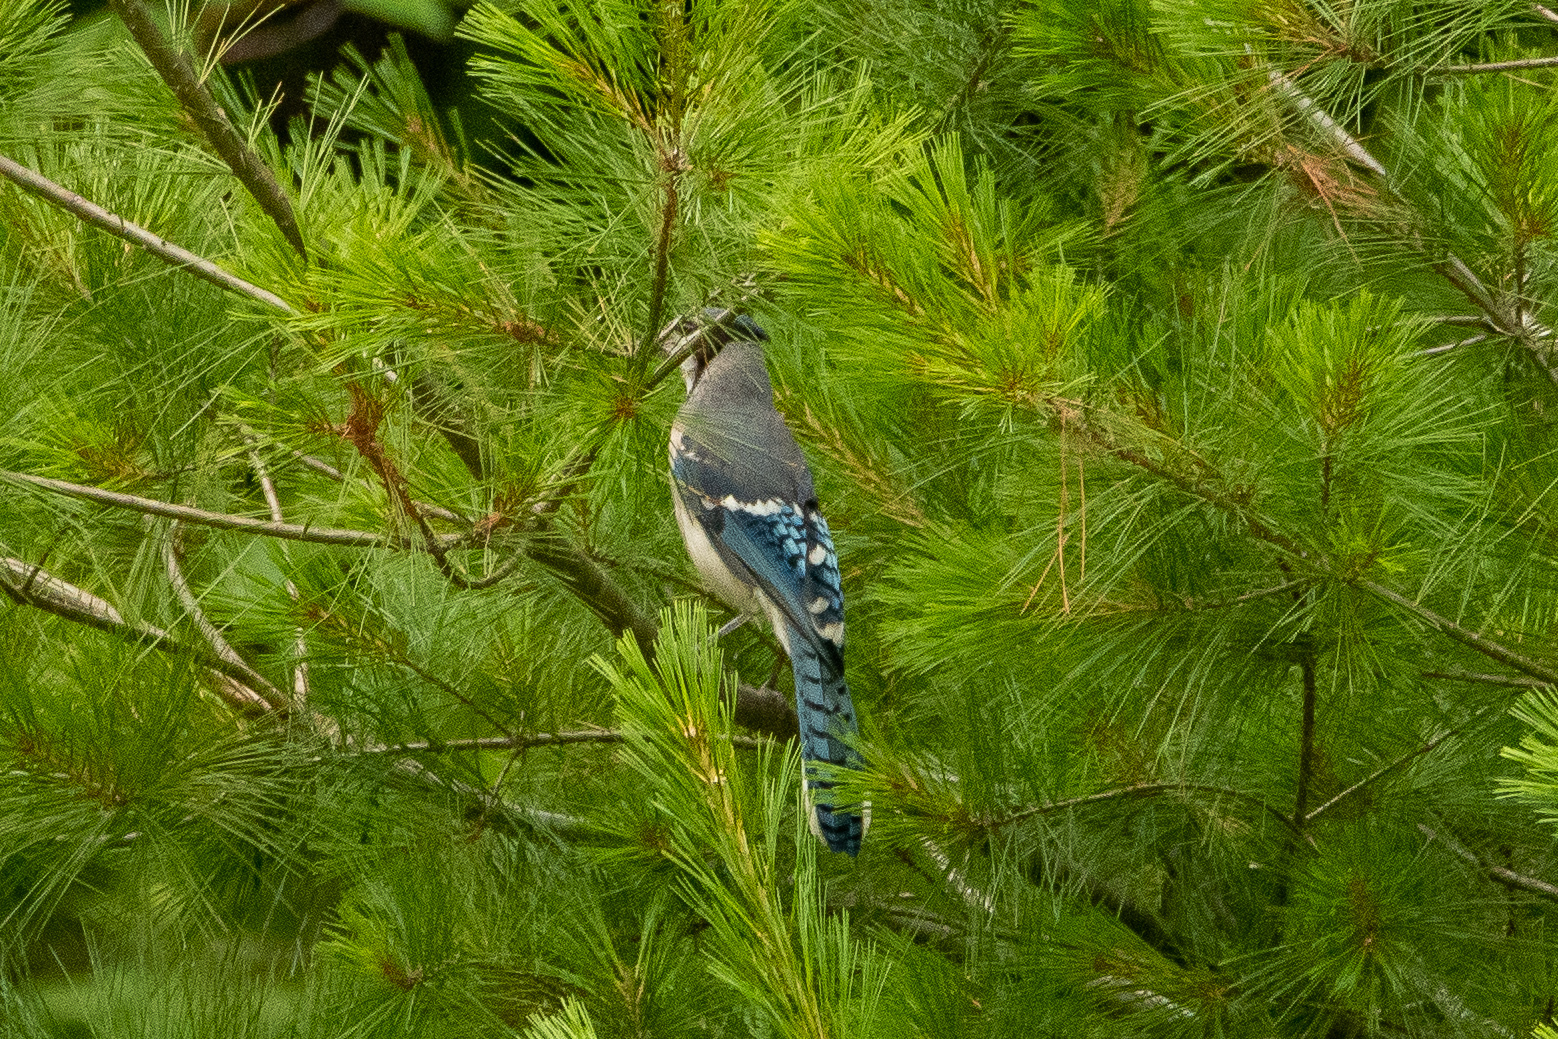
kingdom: Animalia
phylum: Chordata
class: Aves
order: Passeriformes
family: Corvidae
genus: Cyanocitta
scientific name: Cyanocitta cristata
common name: Blue jay
